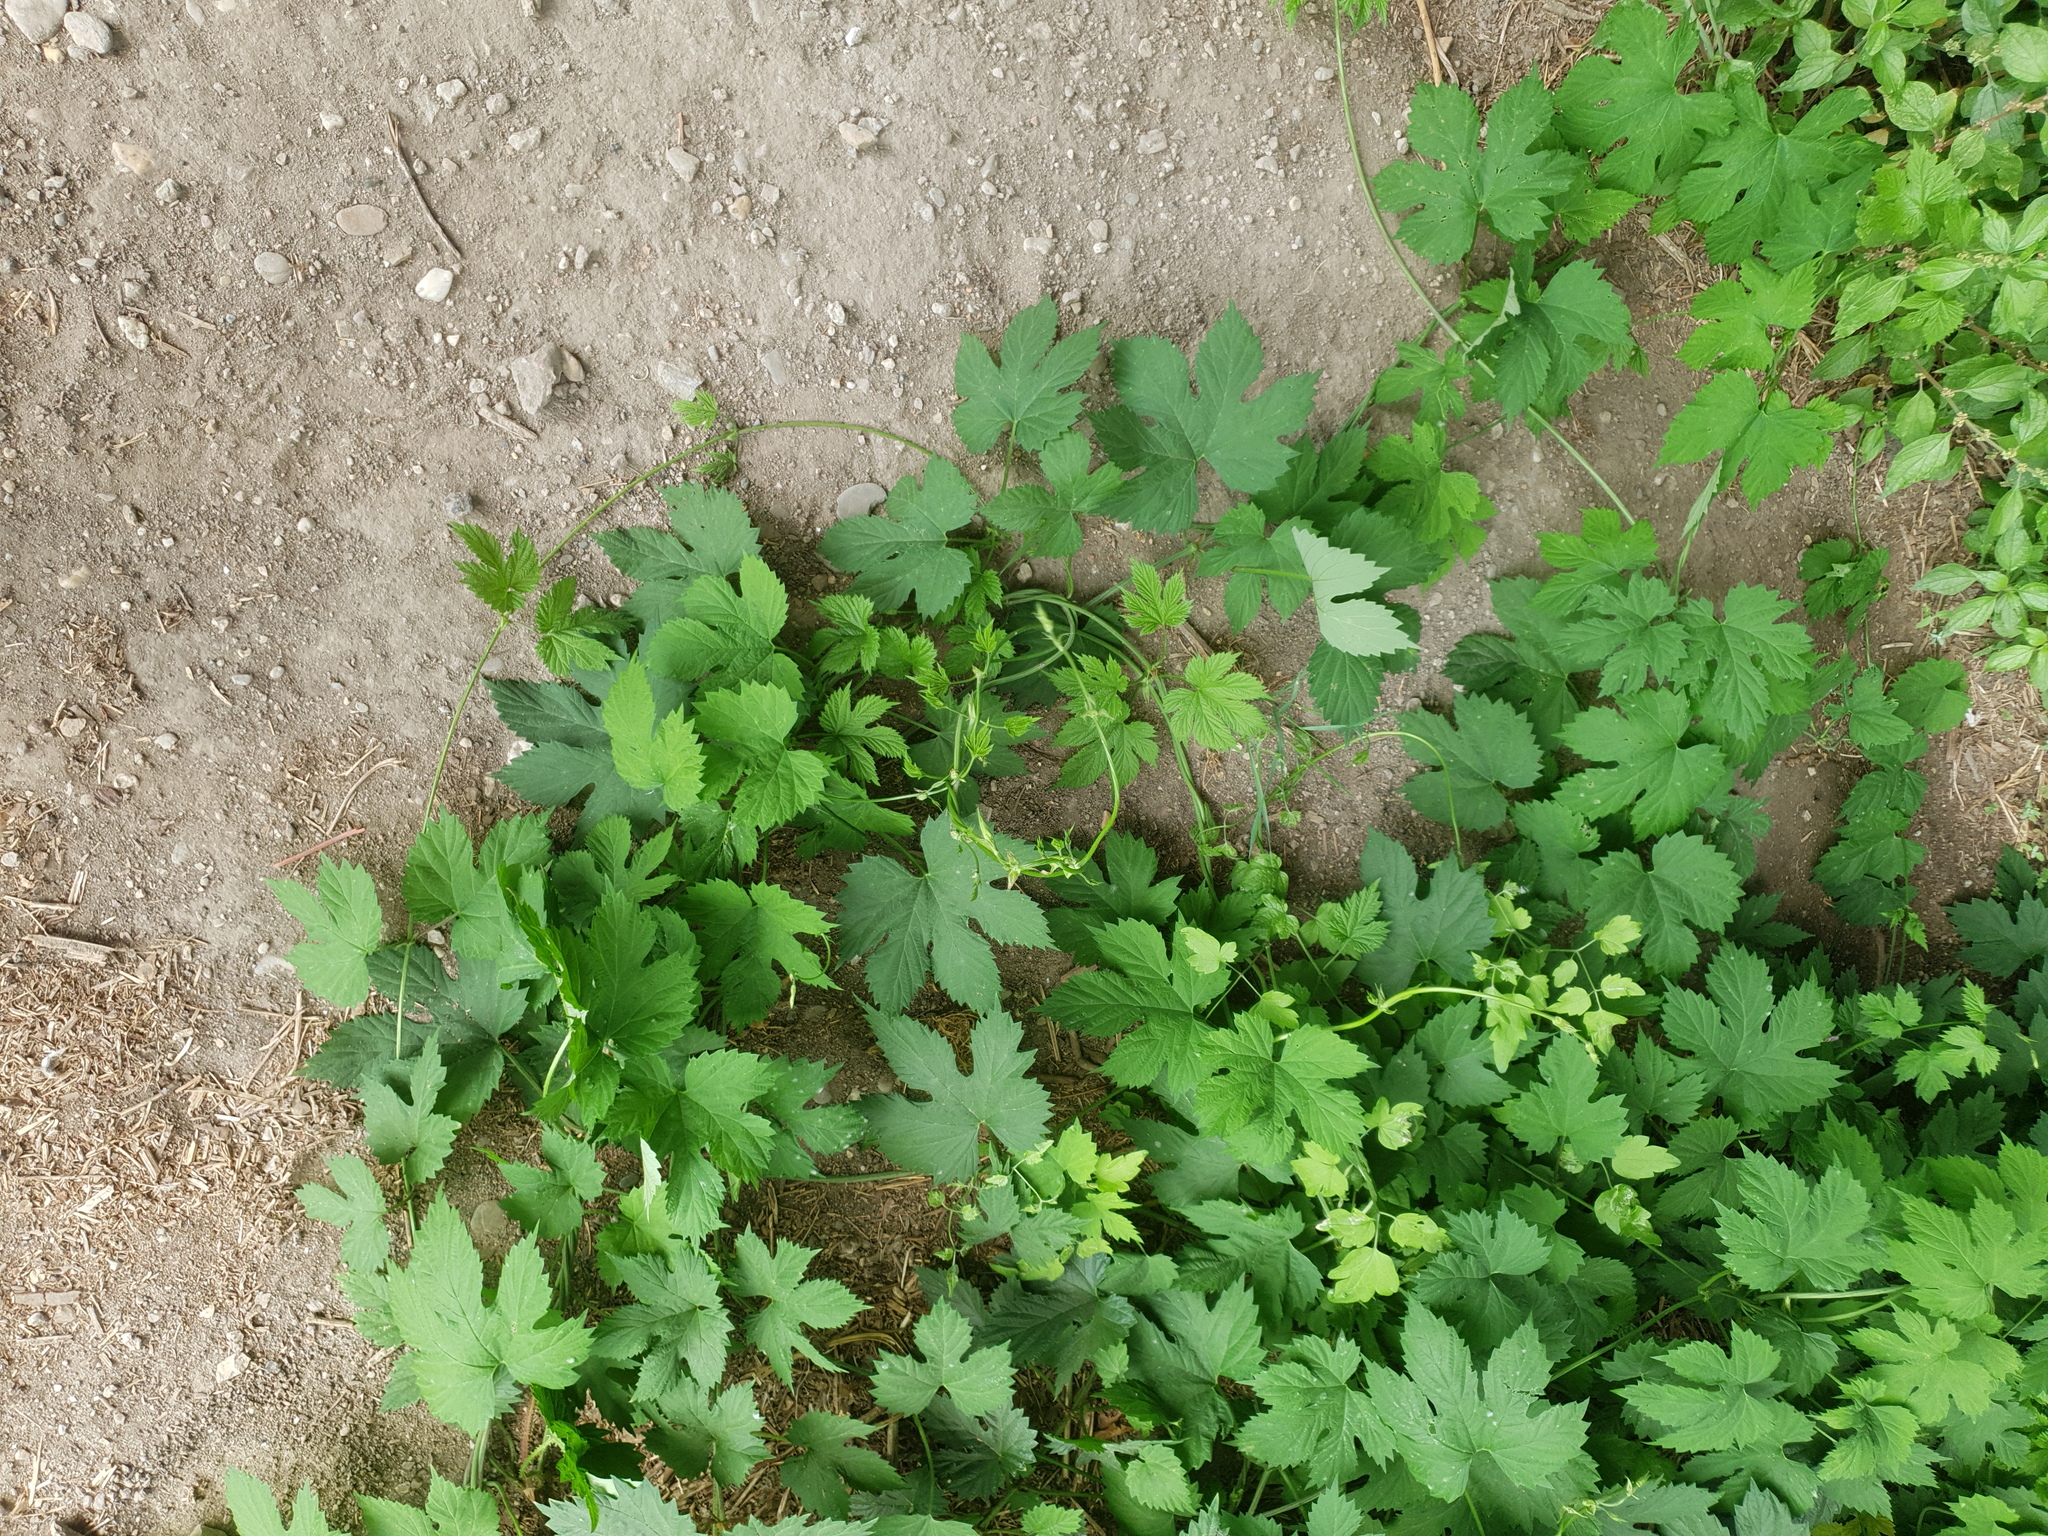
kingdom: Plantae
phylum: Tracheophyta
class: Magnoliopsida
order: Rosales
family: Cannabaceae
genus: Humulus
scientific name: Humulus lupulus
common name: Hop
